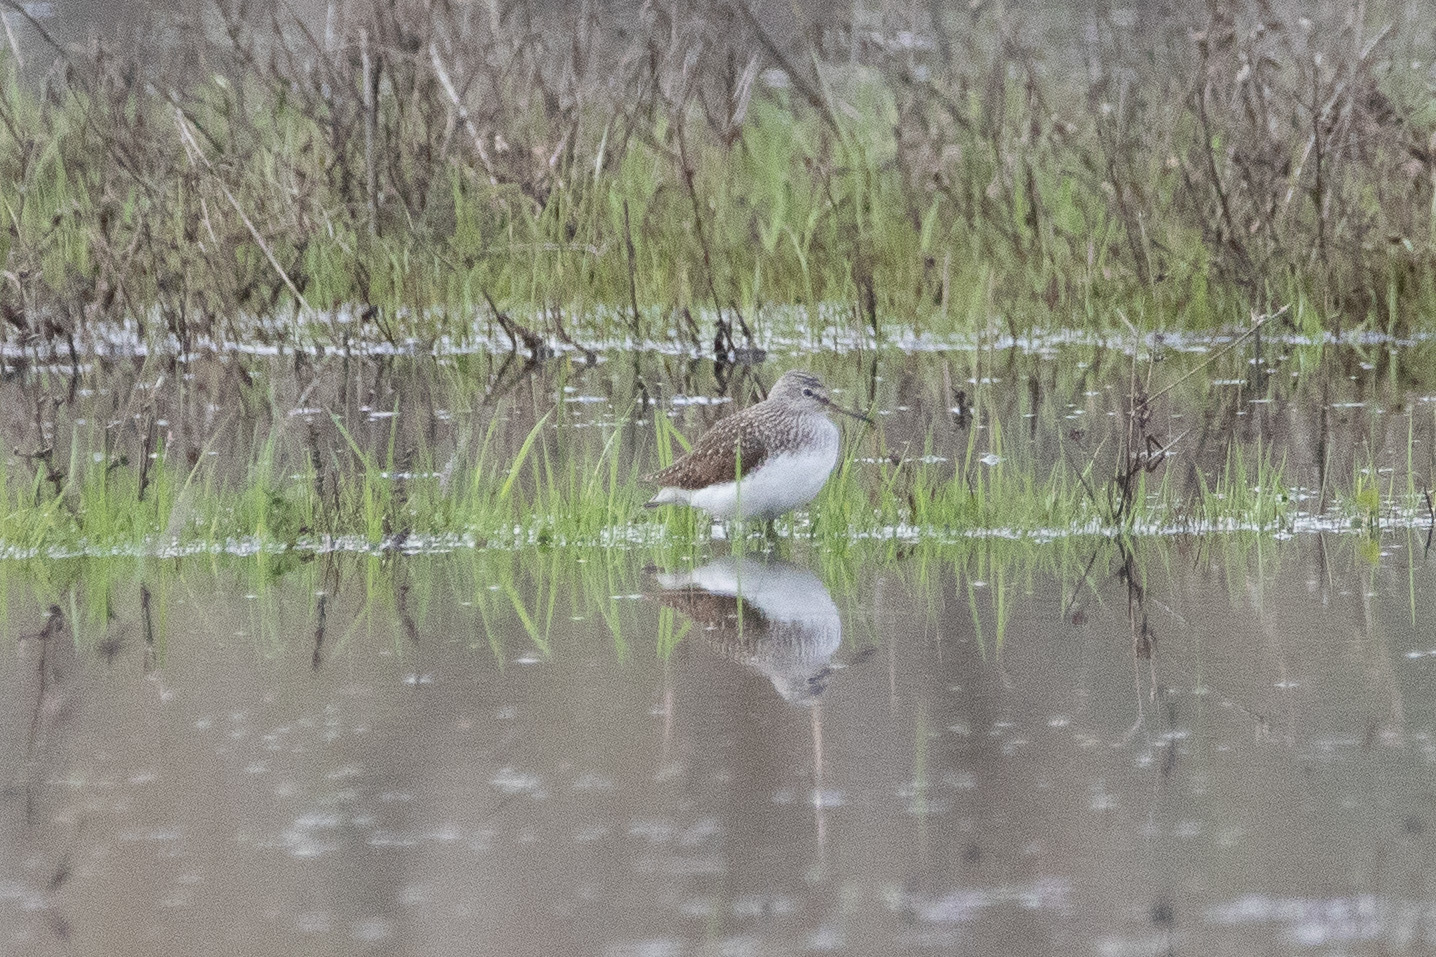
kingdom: Animalia
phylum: Chordata
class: Aves
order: Charadriiformes
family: Scolopacidae
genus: Tringa
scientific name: Tringa ochropus
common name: Green sandpiper
